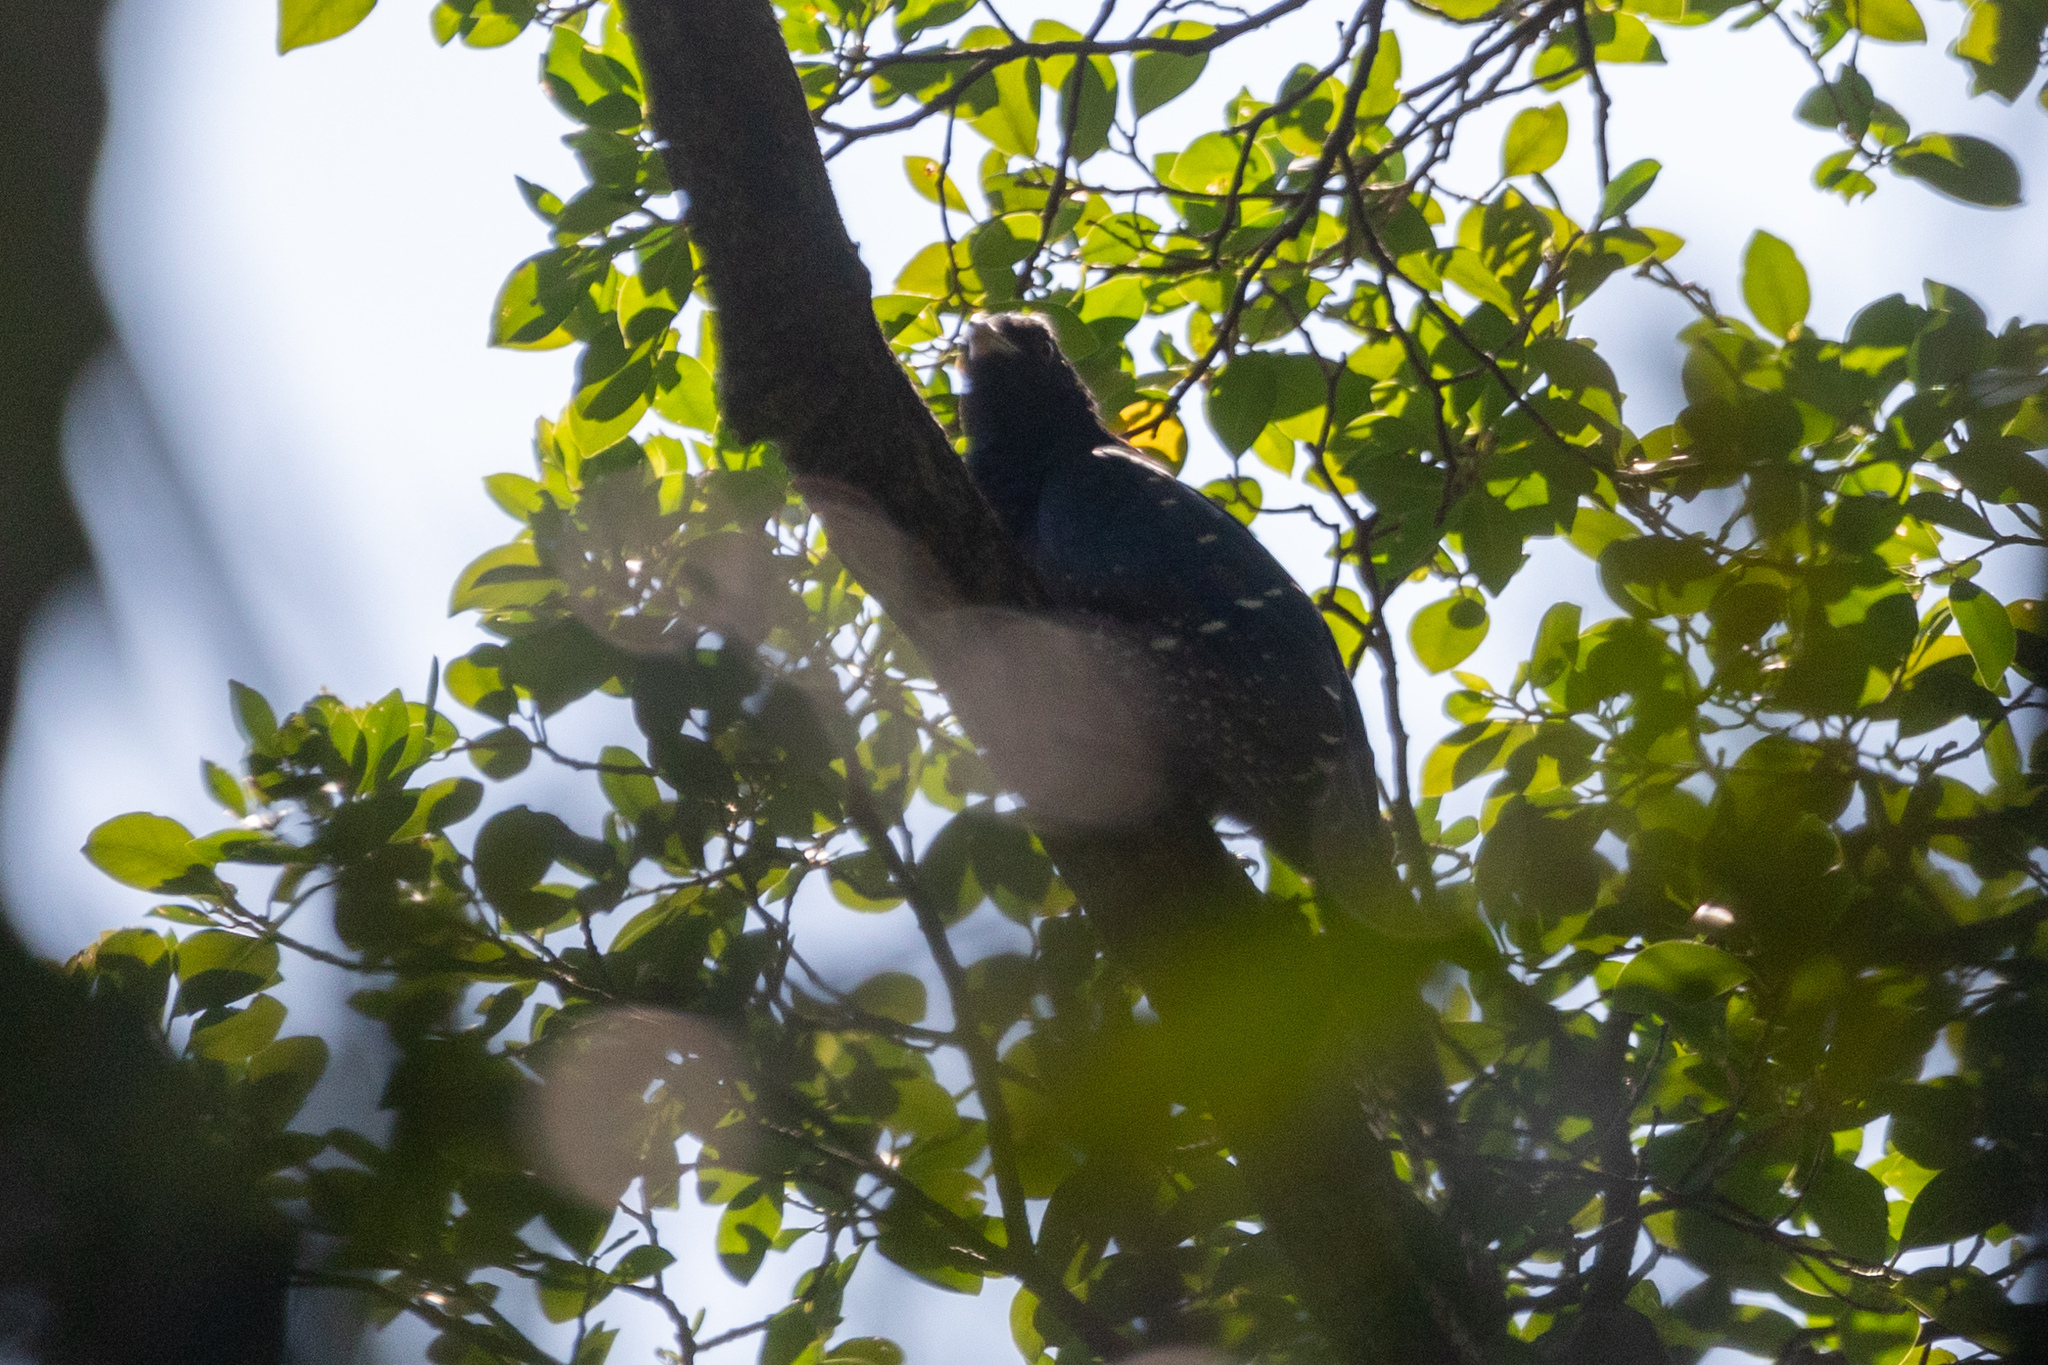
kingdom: Animalia
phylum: Chordata
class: Aves
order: Cuculiformes
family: Cuculidae
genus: Eudynamys
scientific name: Eudynamys scolopaceus
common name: Asian koel
